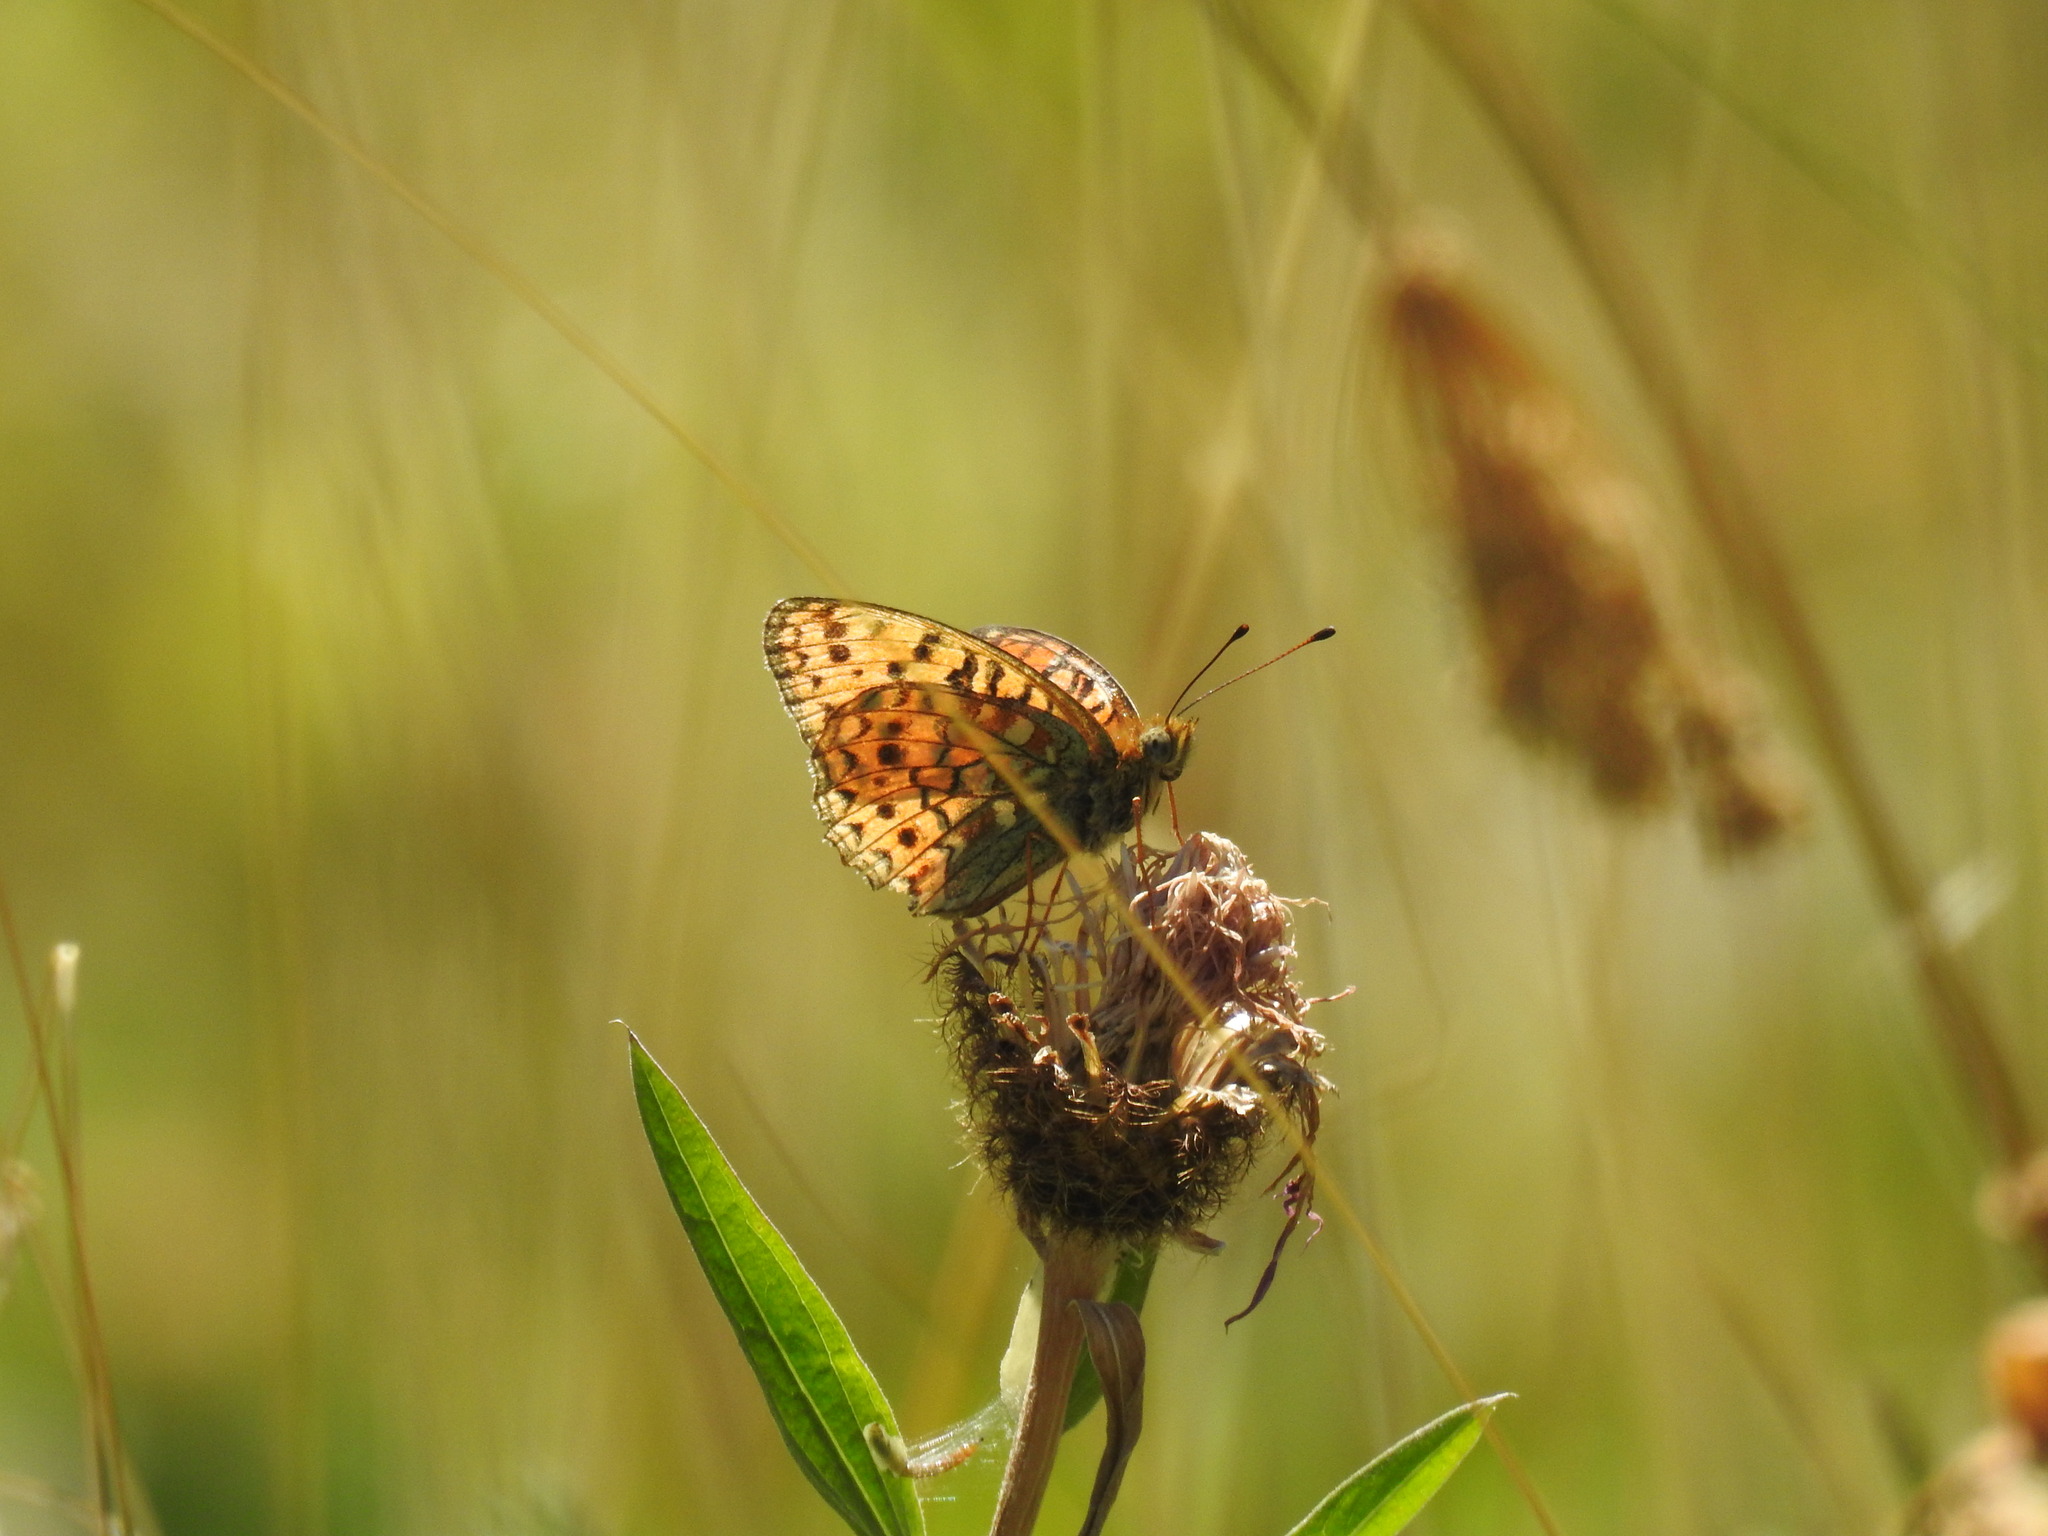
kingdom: Animalia
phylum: Arthropoda
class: Insecta
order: Lepidoptera
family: Nymphalidae
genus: Fabriciana
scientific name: Fabriciana niobe
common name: Niobe fritillary
